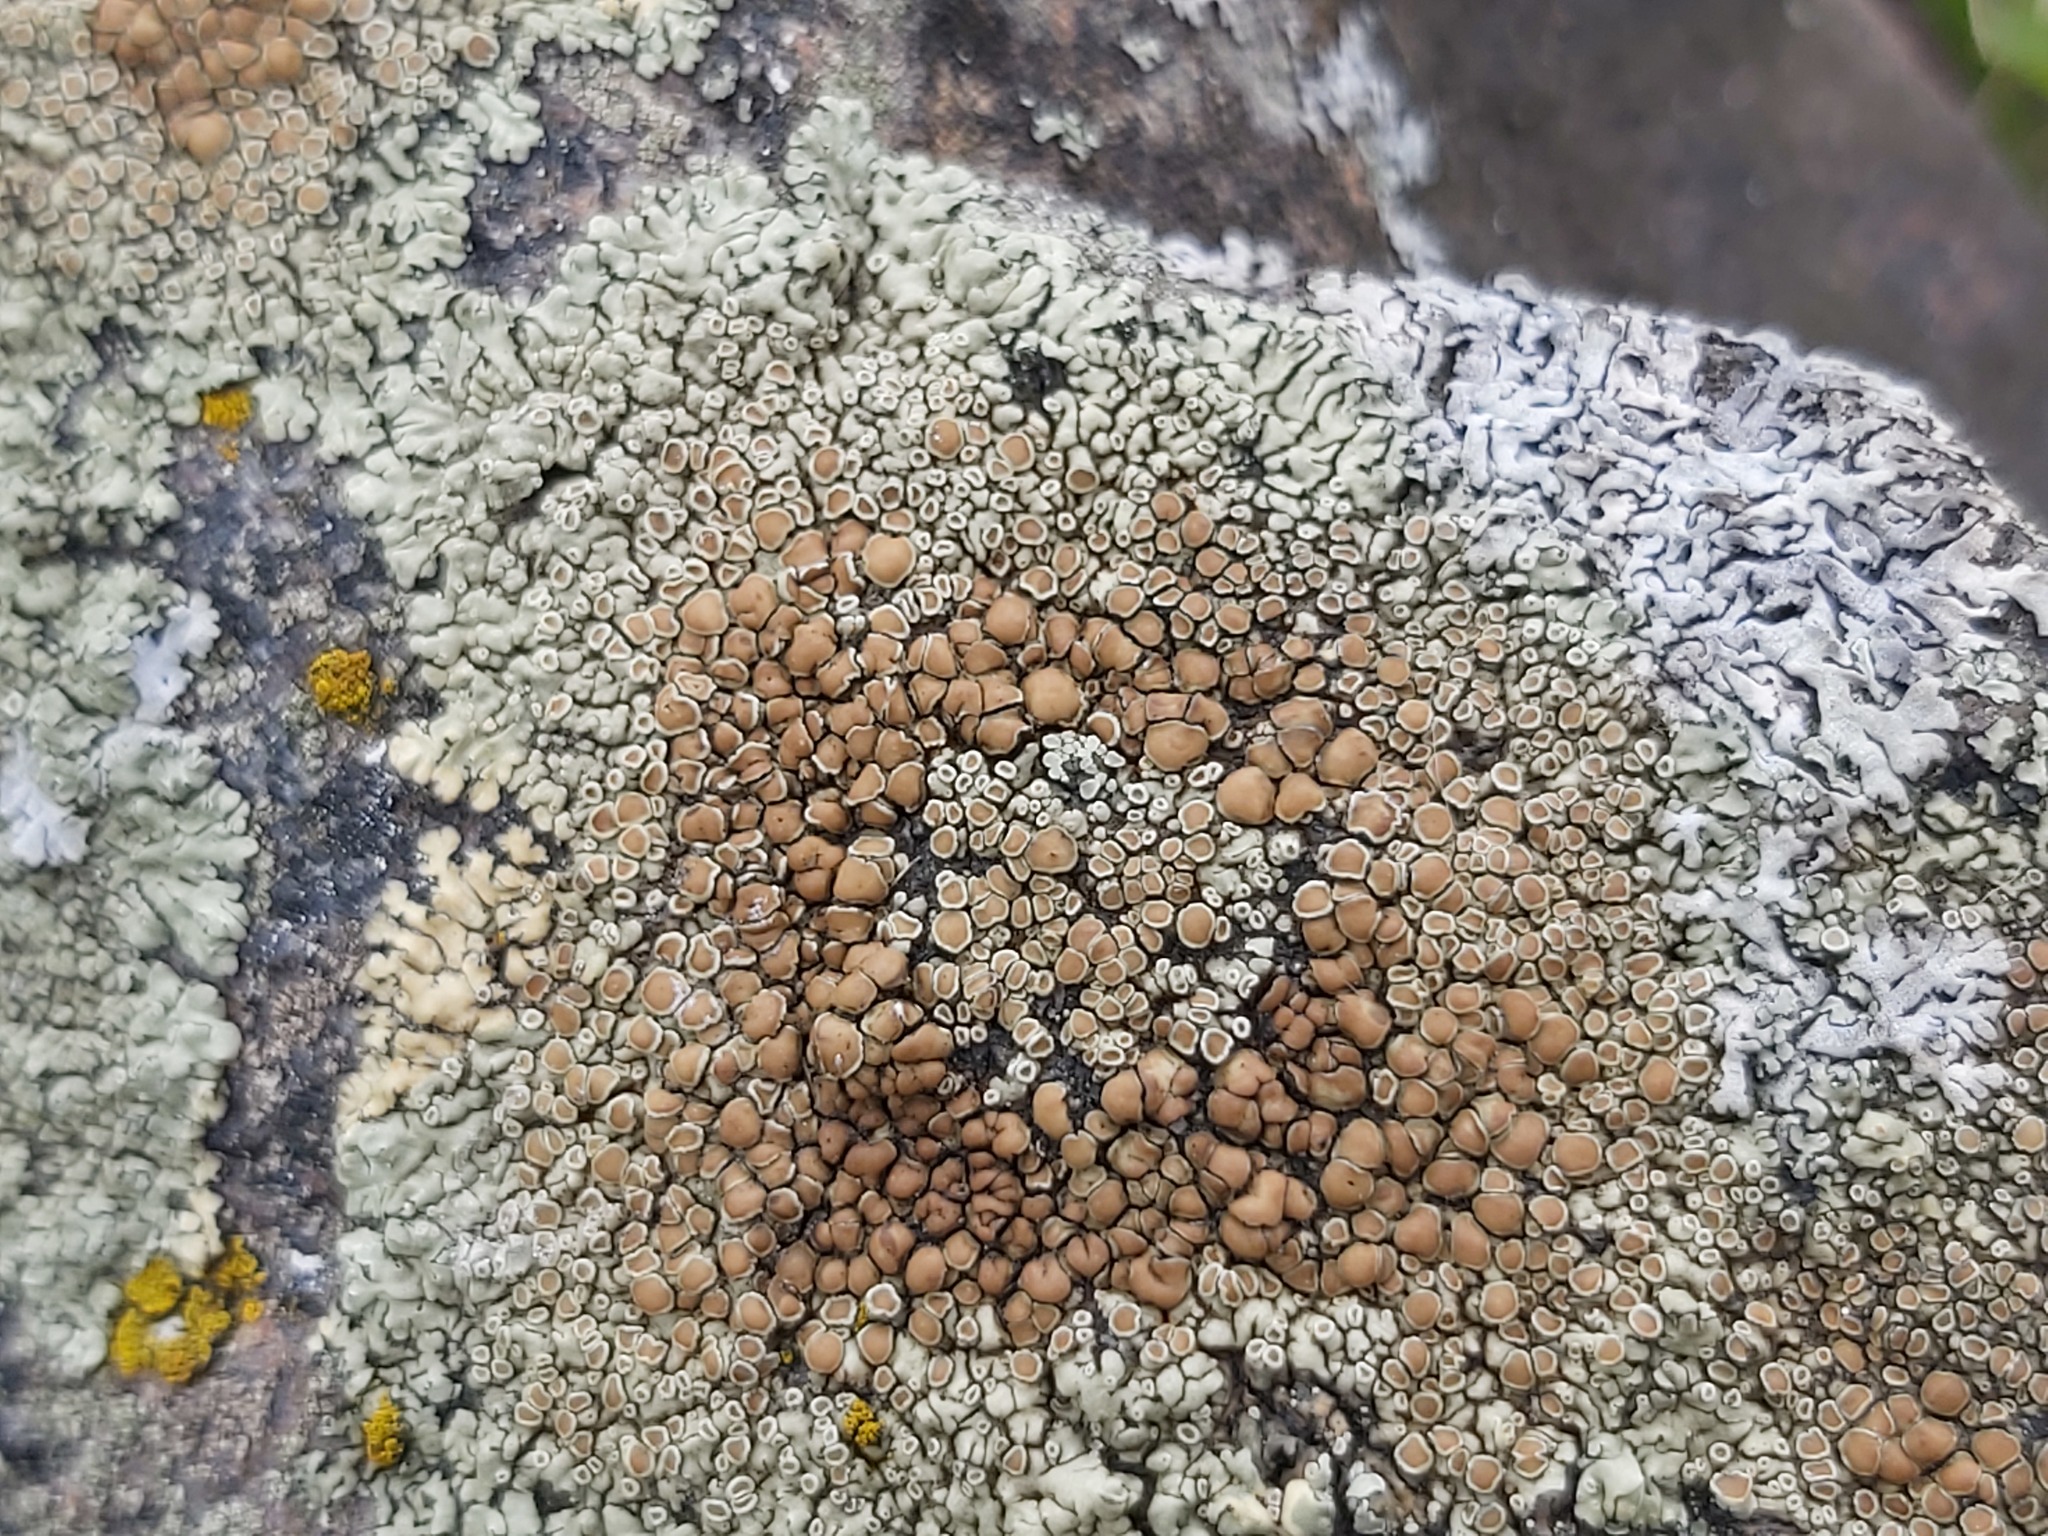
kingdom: Fungi
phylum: Ascomycota
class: Lecanoromycetes
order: Lecanorales
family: Lecanoraceae
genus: Protoparmeliopsis
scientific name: Protoparmeliopsis muralis
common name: Stonewall rim lichen
